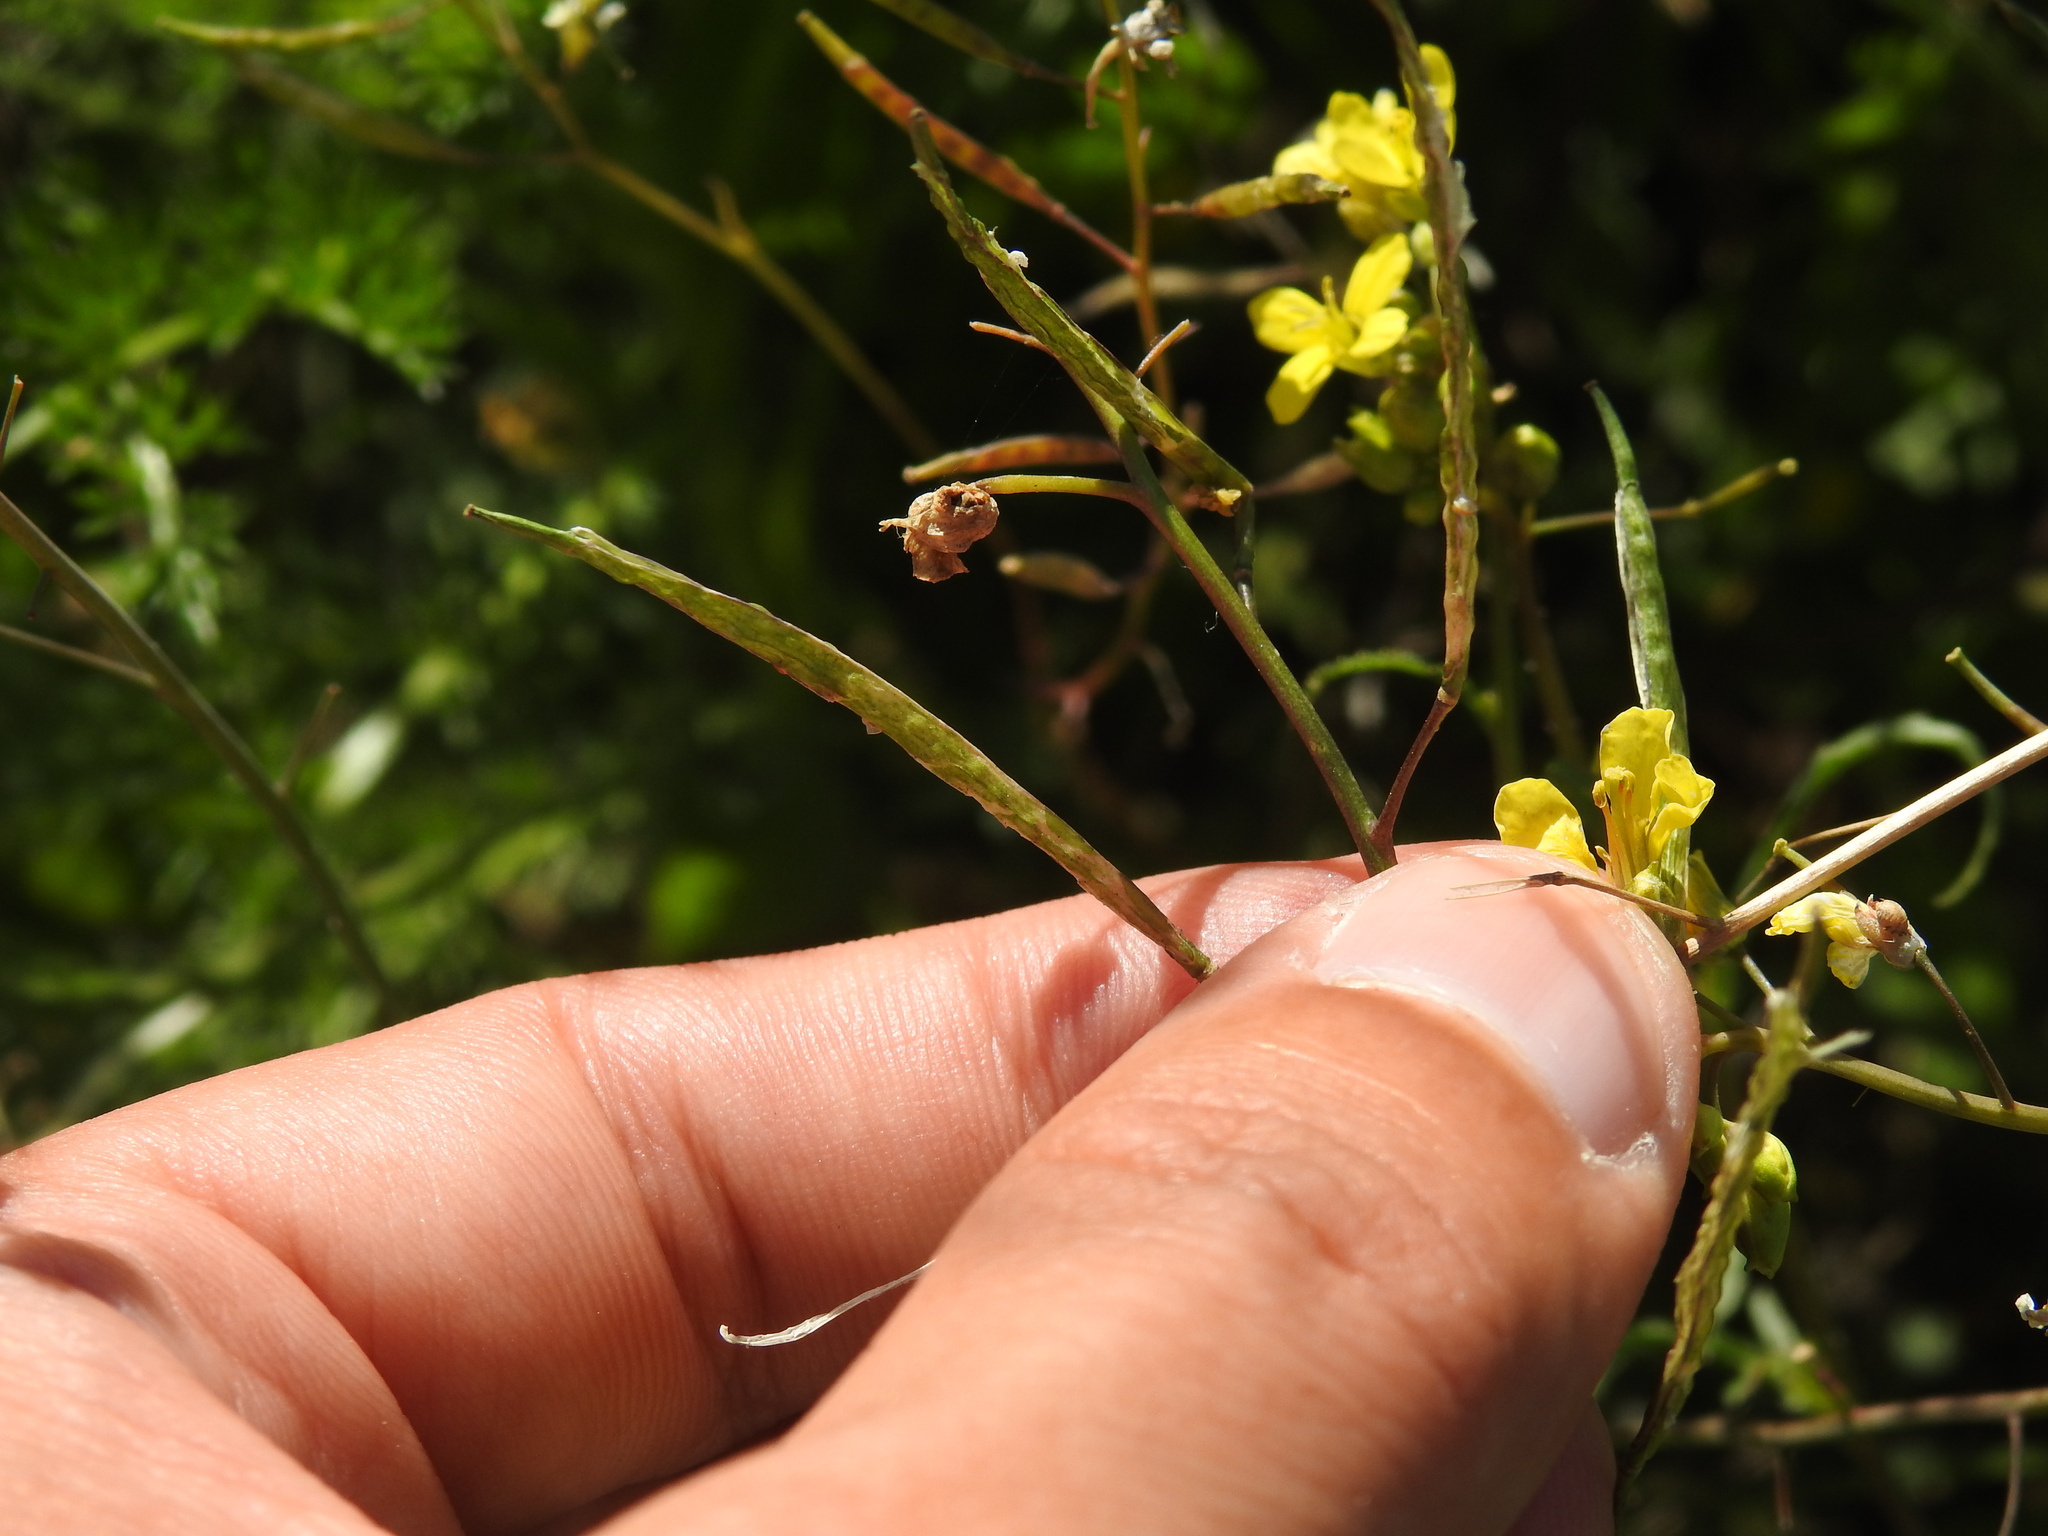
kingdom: Plantae
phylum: Tracheophyta
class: Magnoliopsida
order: Brassicales
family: Brassicaceae
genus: Diplotaxis
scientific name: Diplotaxis catholica
